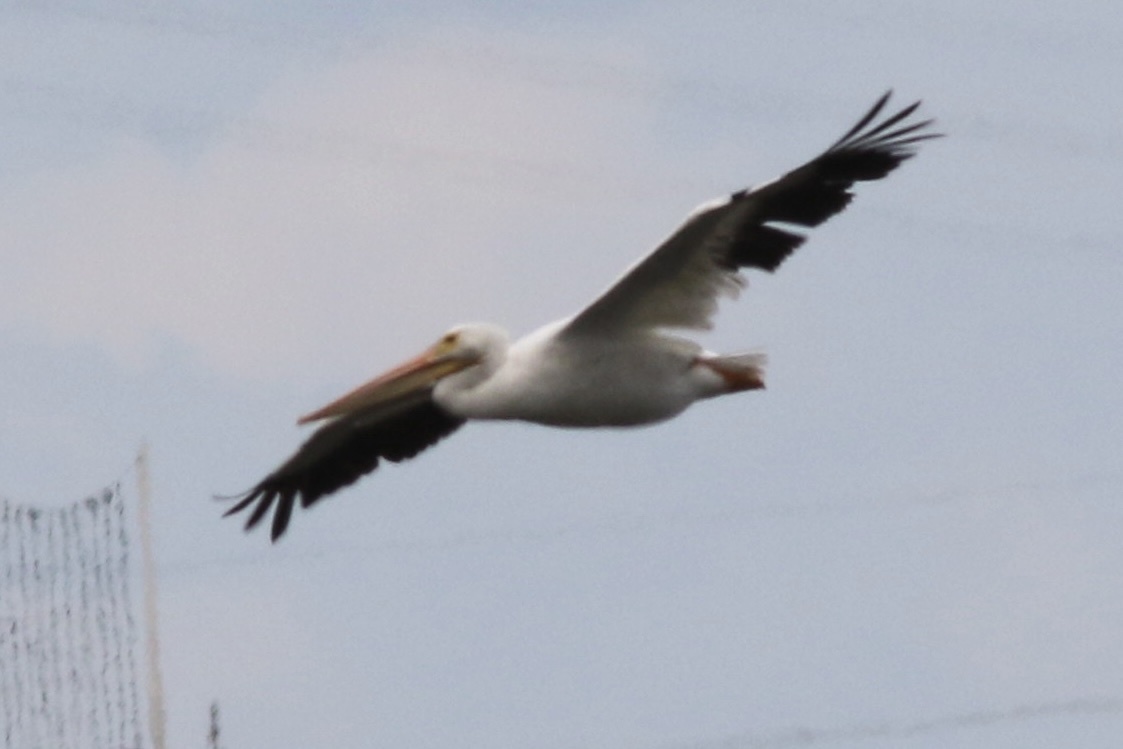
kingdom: Animalia
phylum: Chordata
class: Aves
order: Pelecaniformes
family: Pelecanidae
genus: Pelecanus
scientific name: Pelecanus erythrorhynchos
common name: American white pelican
